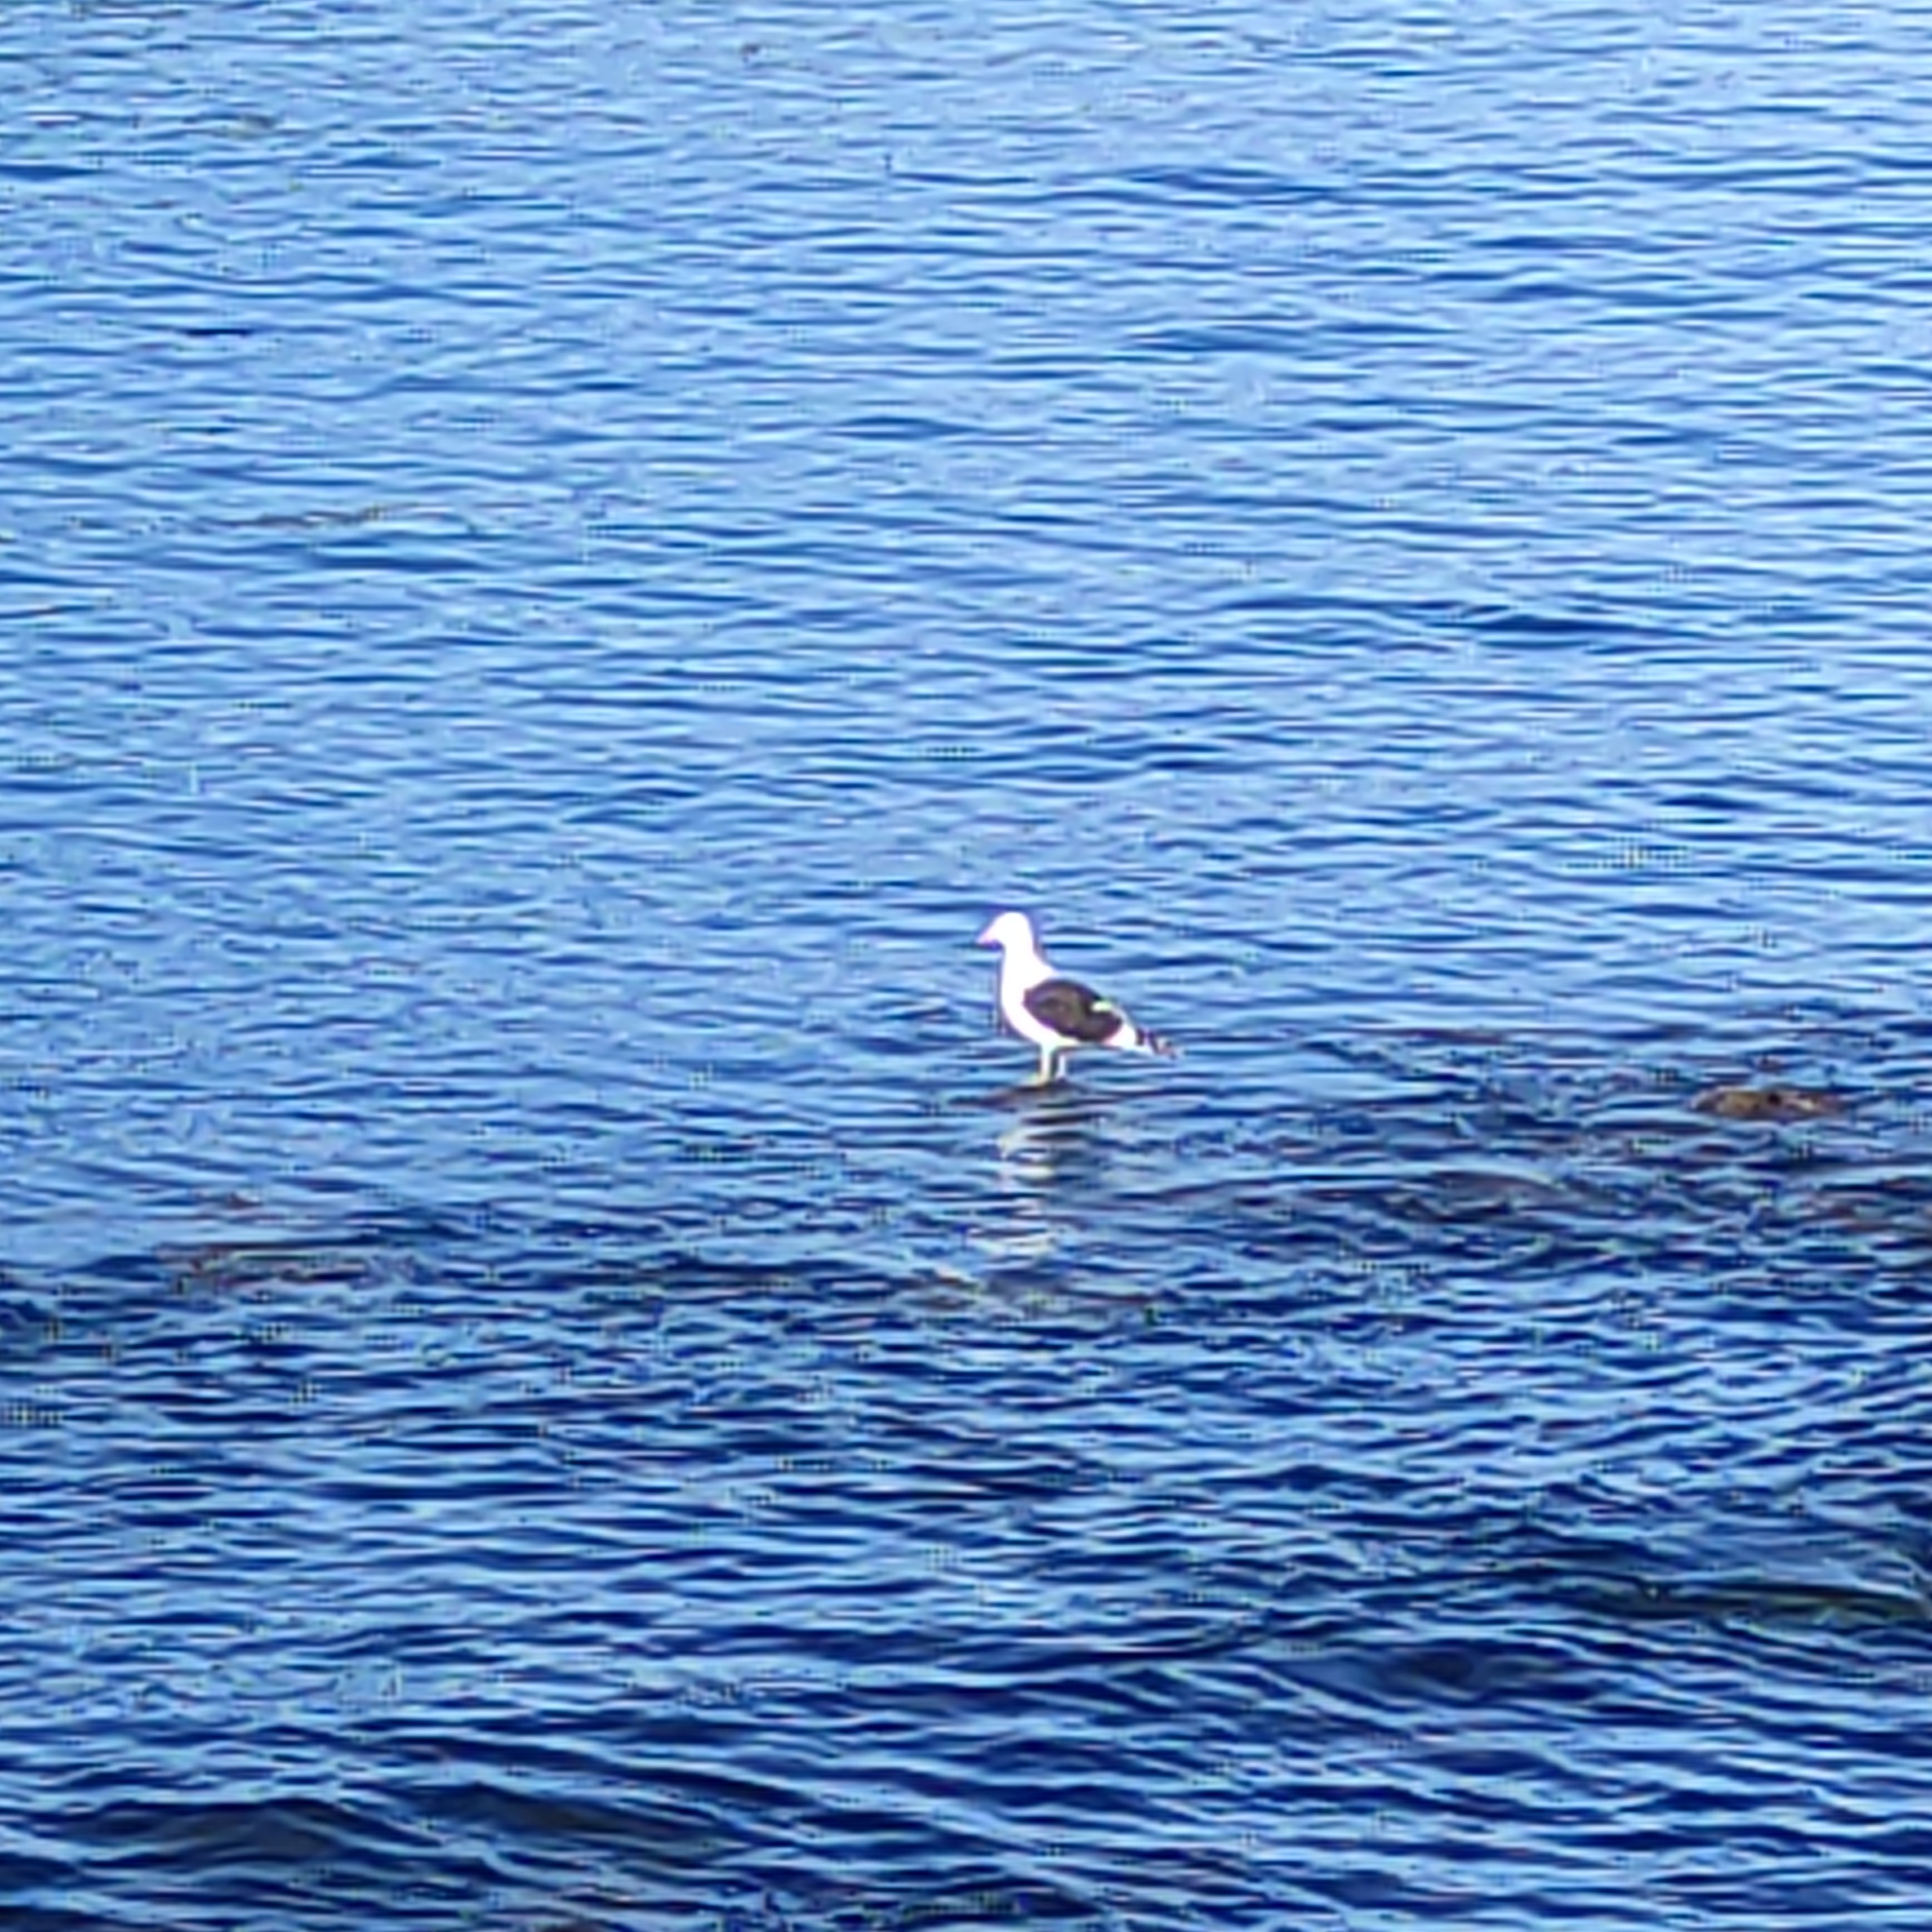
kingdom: Animalia
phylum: Chordata
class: Aves
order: Charadriiformes
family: Laridae
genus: Larus
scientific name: Larus dominicanus
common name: Kelp gull
